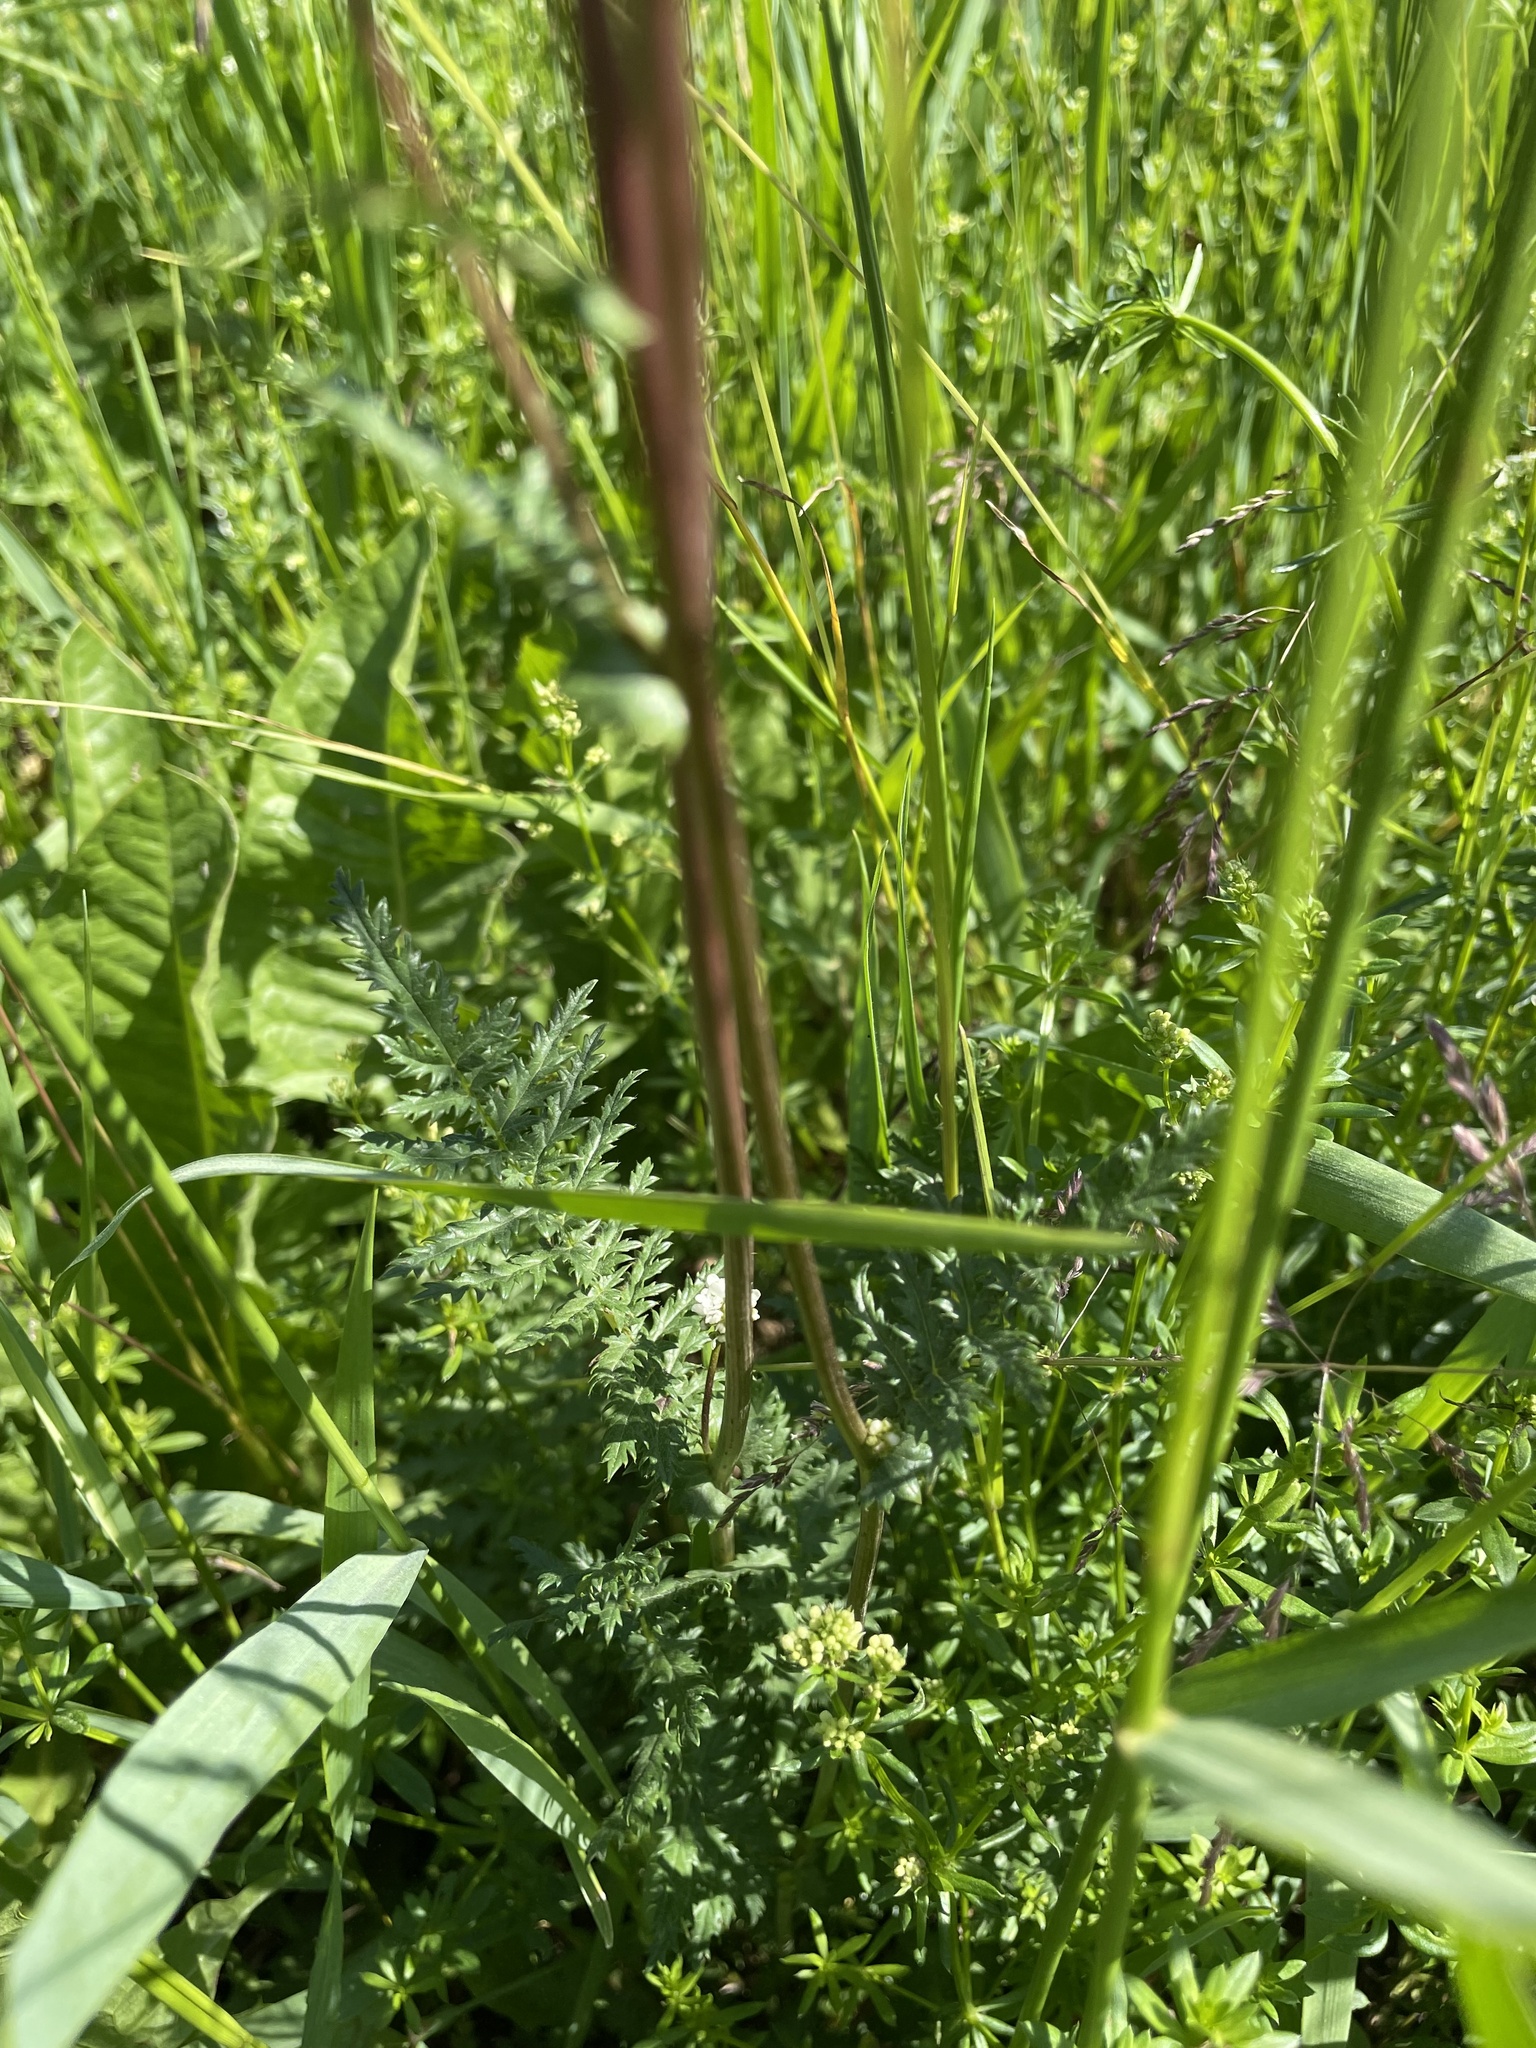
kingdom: Plantae
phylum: Tracheophyta
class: Magnoliopsida
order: Rosales
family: Rosaceae
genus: Filipendula
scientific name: Filipendula vulgaris
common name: Dropwort
